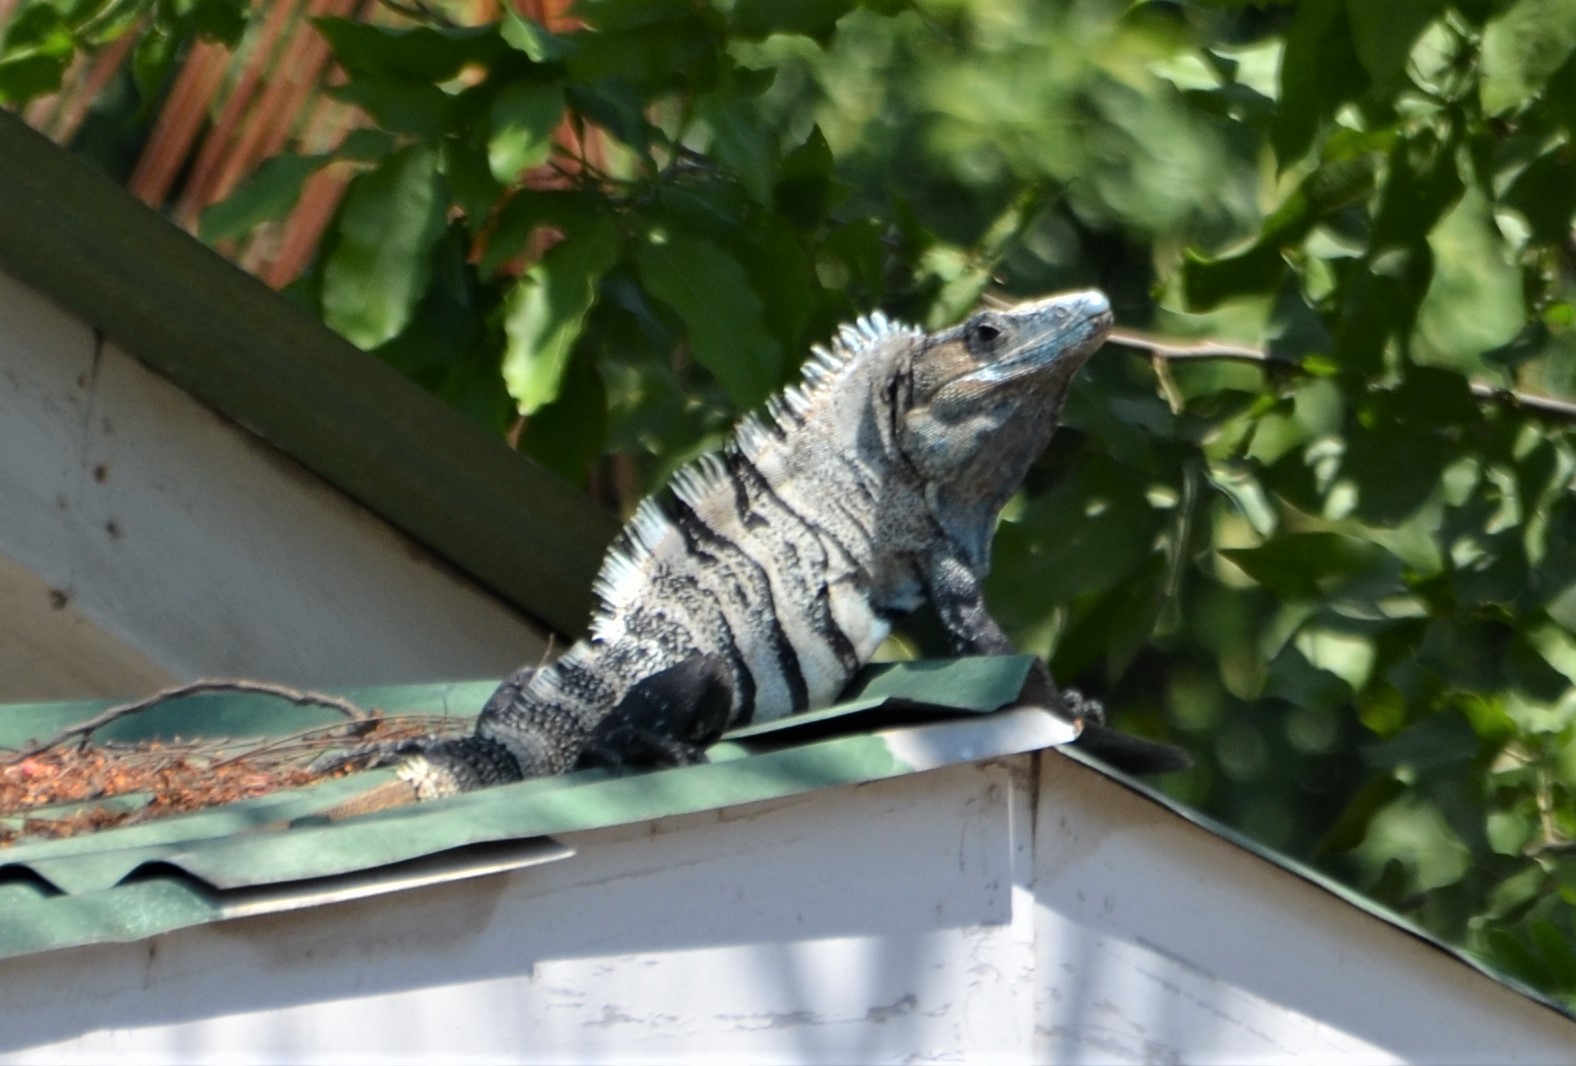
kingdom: Animalia
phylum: Chordata
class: Squamata
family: Iguanidae
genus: Ctenosaura
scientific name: Ctenosaura similis
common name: Black spiny-tailed iguana
